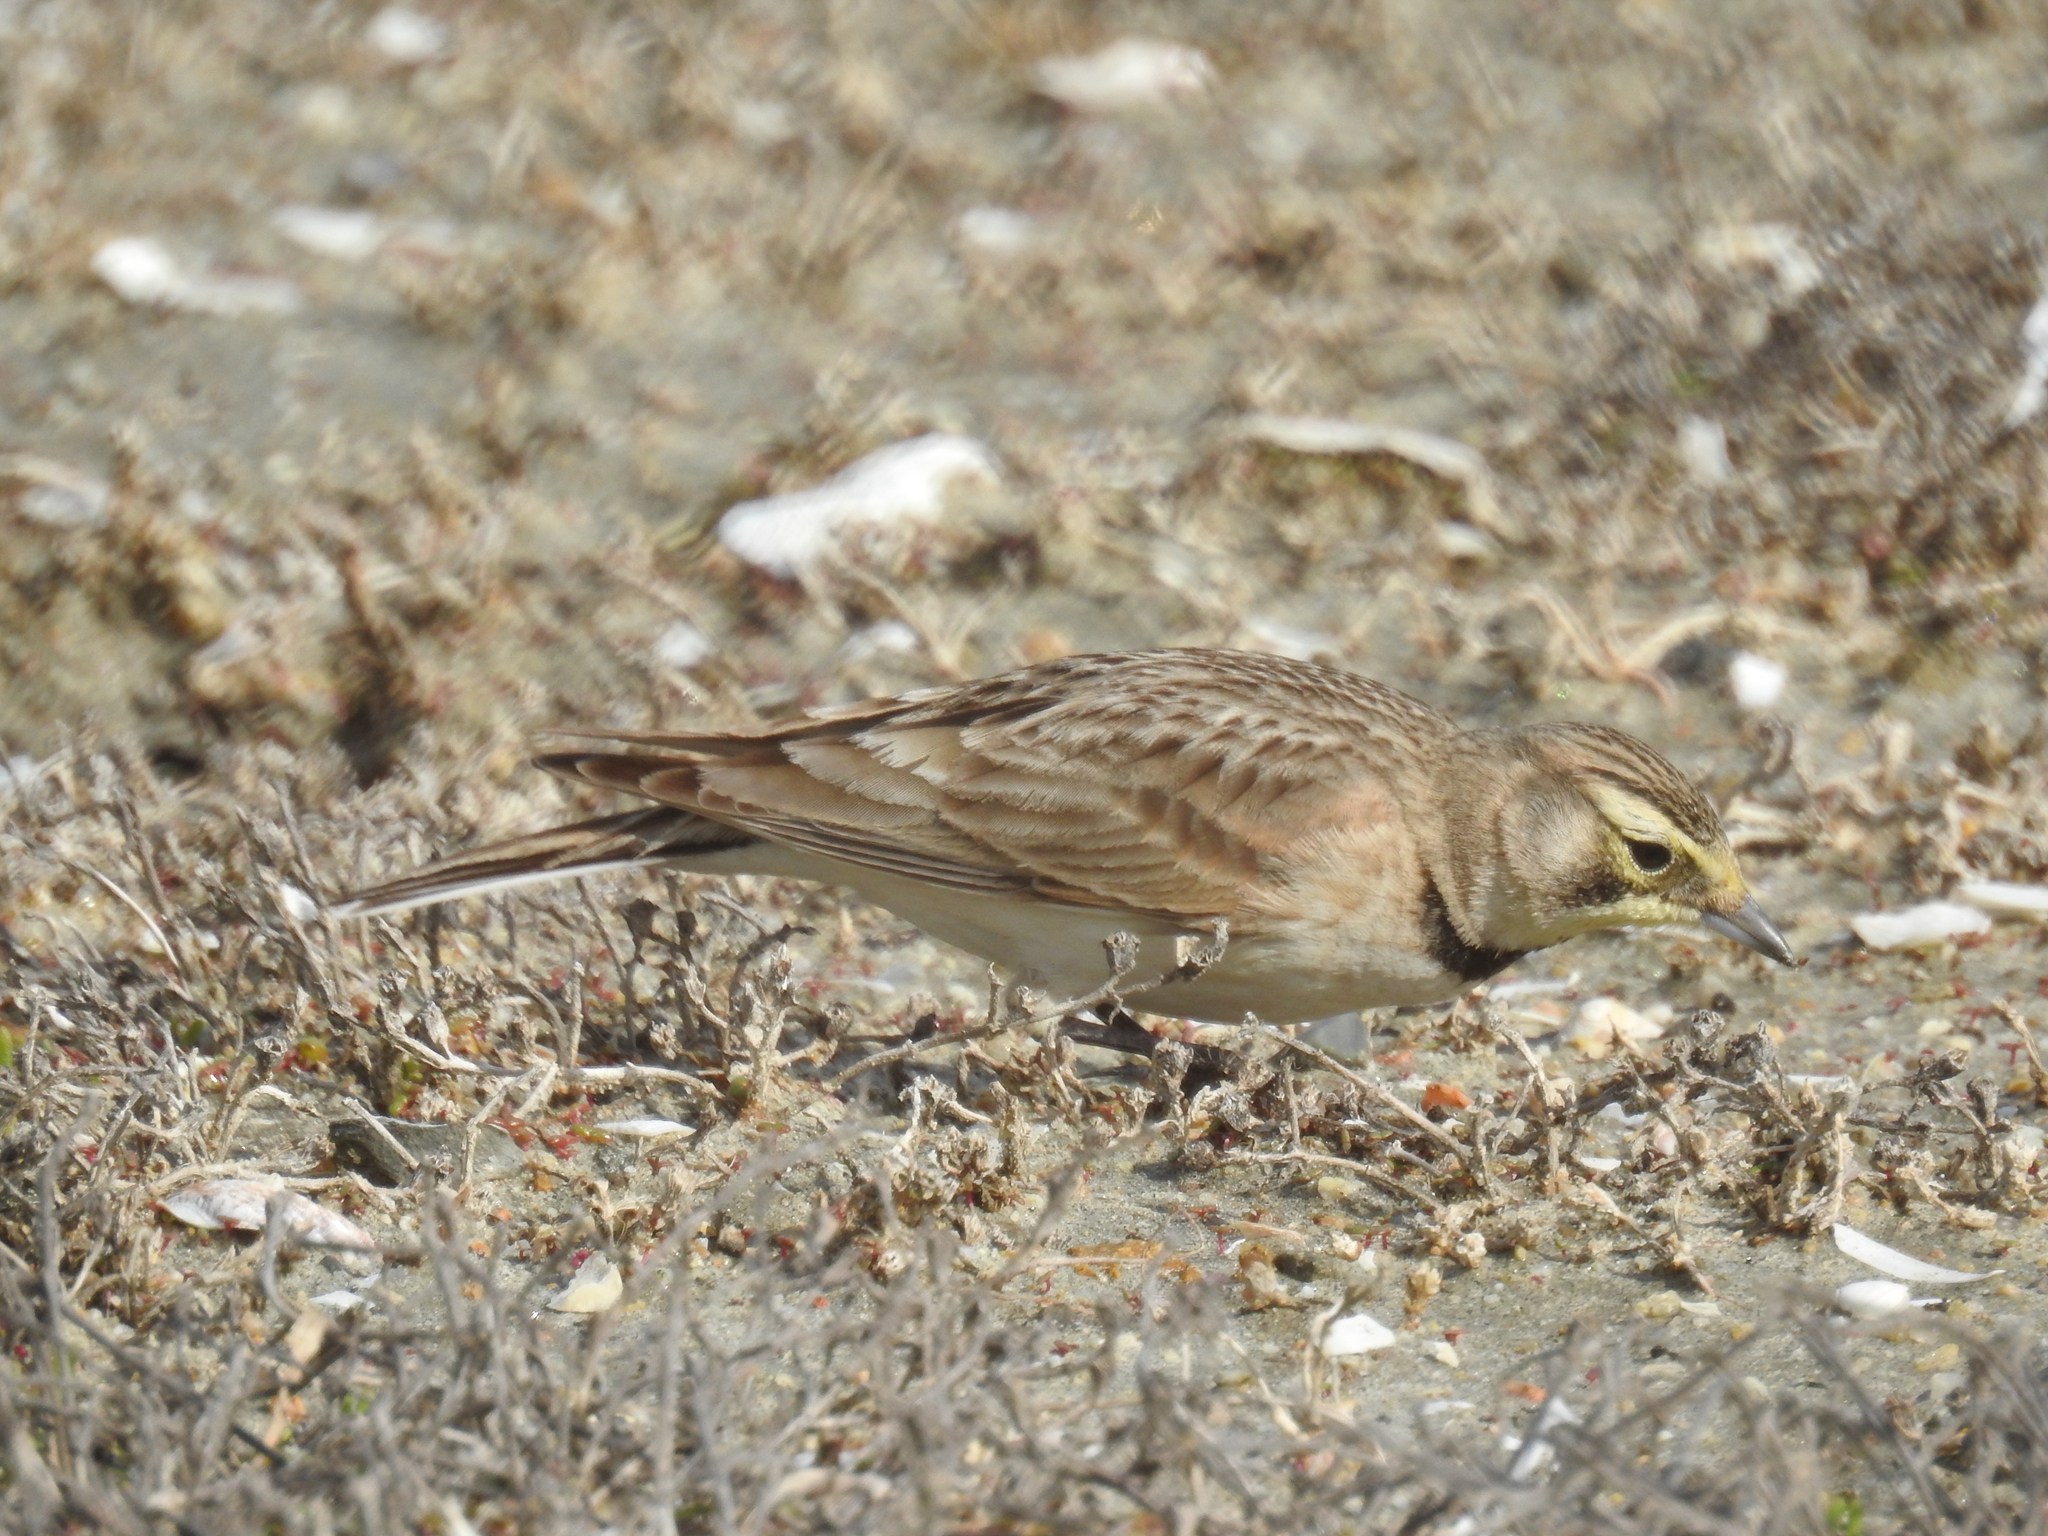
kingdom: Animalia
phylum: Chordata
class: Aves
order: Passeriformes
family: Alaudidae
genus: Eremophila
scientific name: Eremophila alpestris
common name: Horned lark
